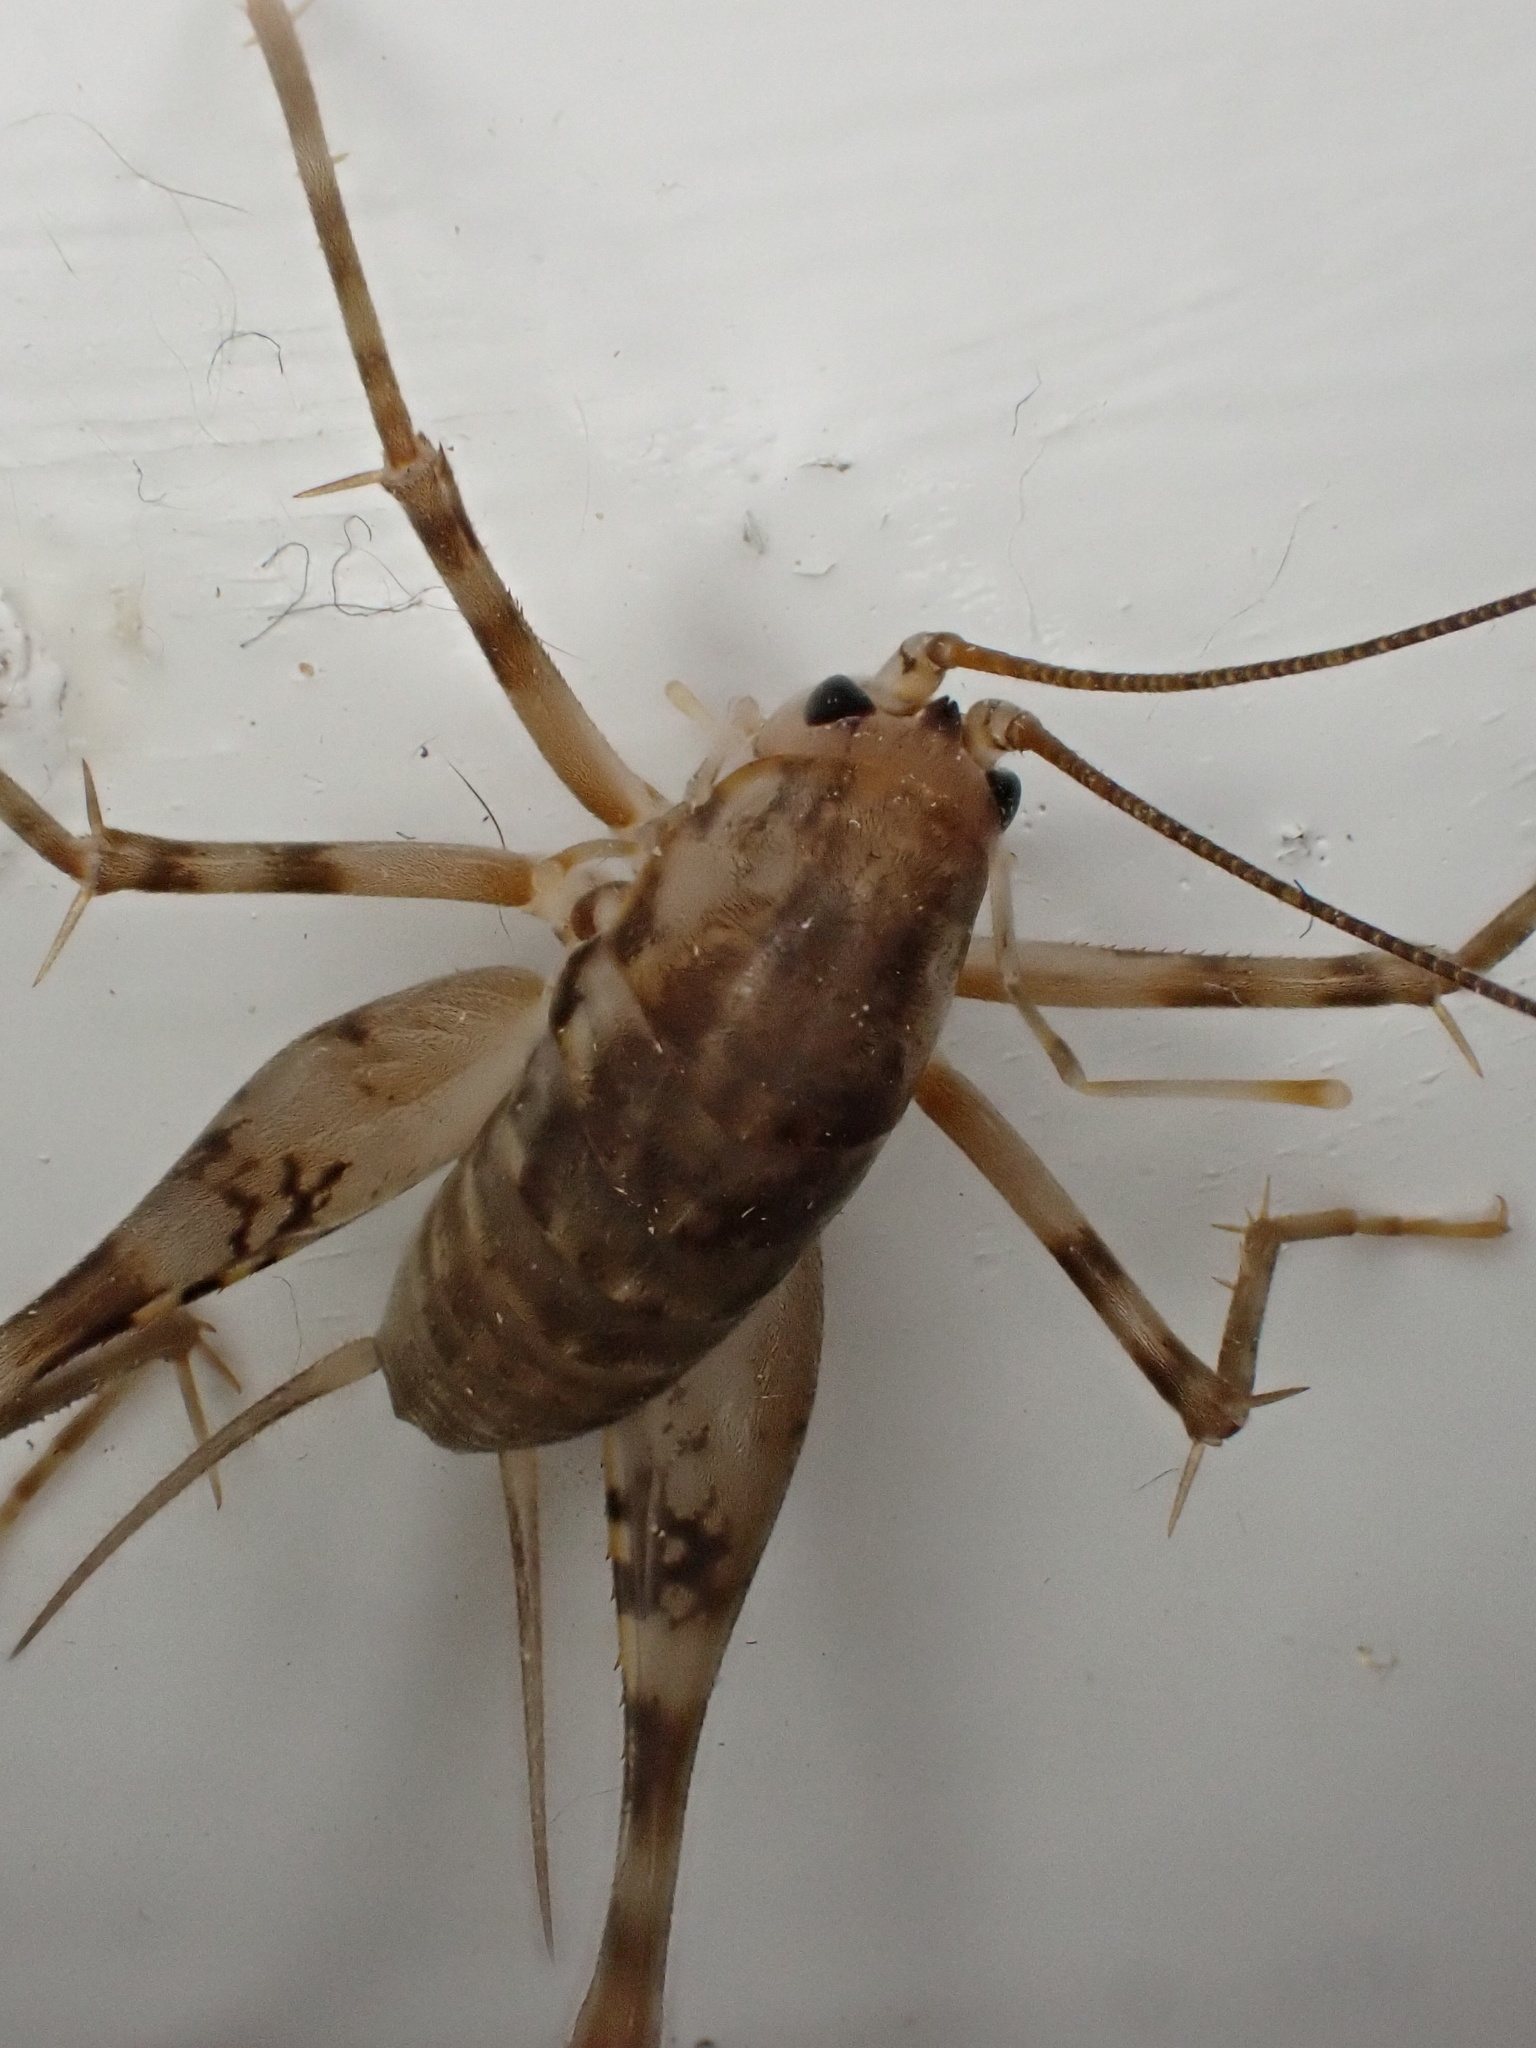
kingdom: Animalia
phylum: Arthropoda
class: Insecta
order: Orthoptera
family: Rhaphidophoridae
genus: Tachycines
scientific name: Tachycines asynamorus
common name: Greenhouse camel cricket
